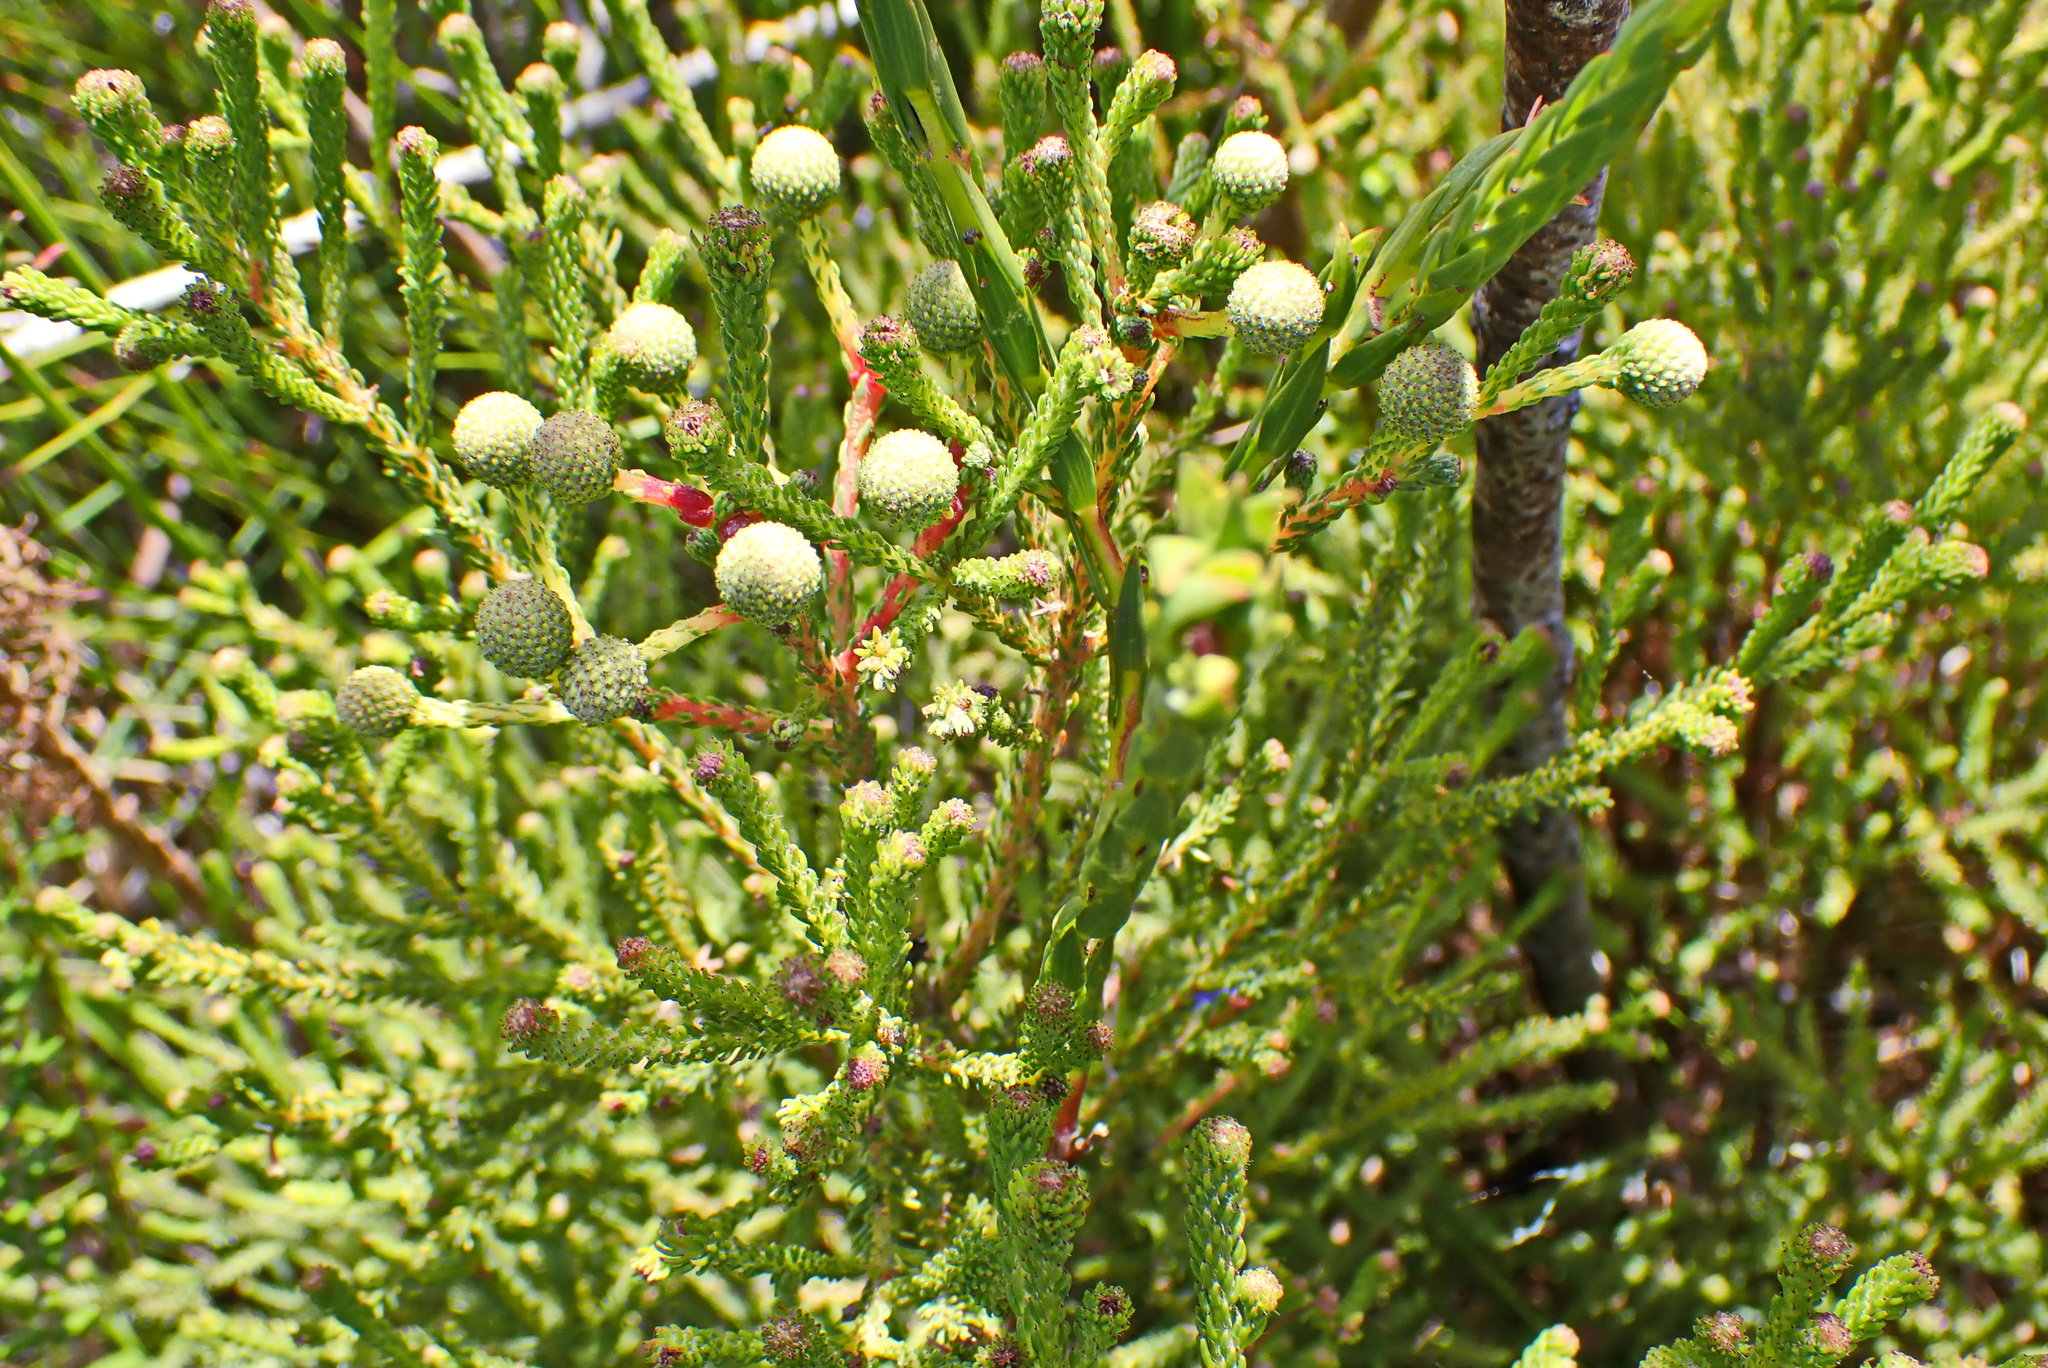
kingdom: Plantae
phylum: Tracheophyta
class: Magnoliopsida
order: Bruniales
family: Bruniaceae
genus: Berzelia
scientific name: Berzelia intermedia
